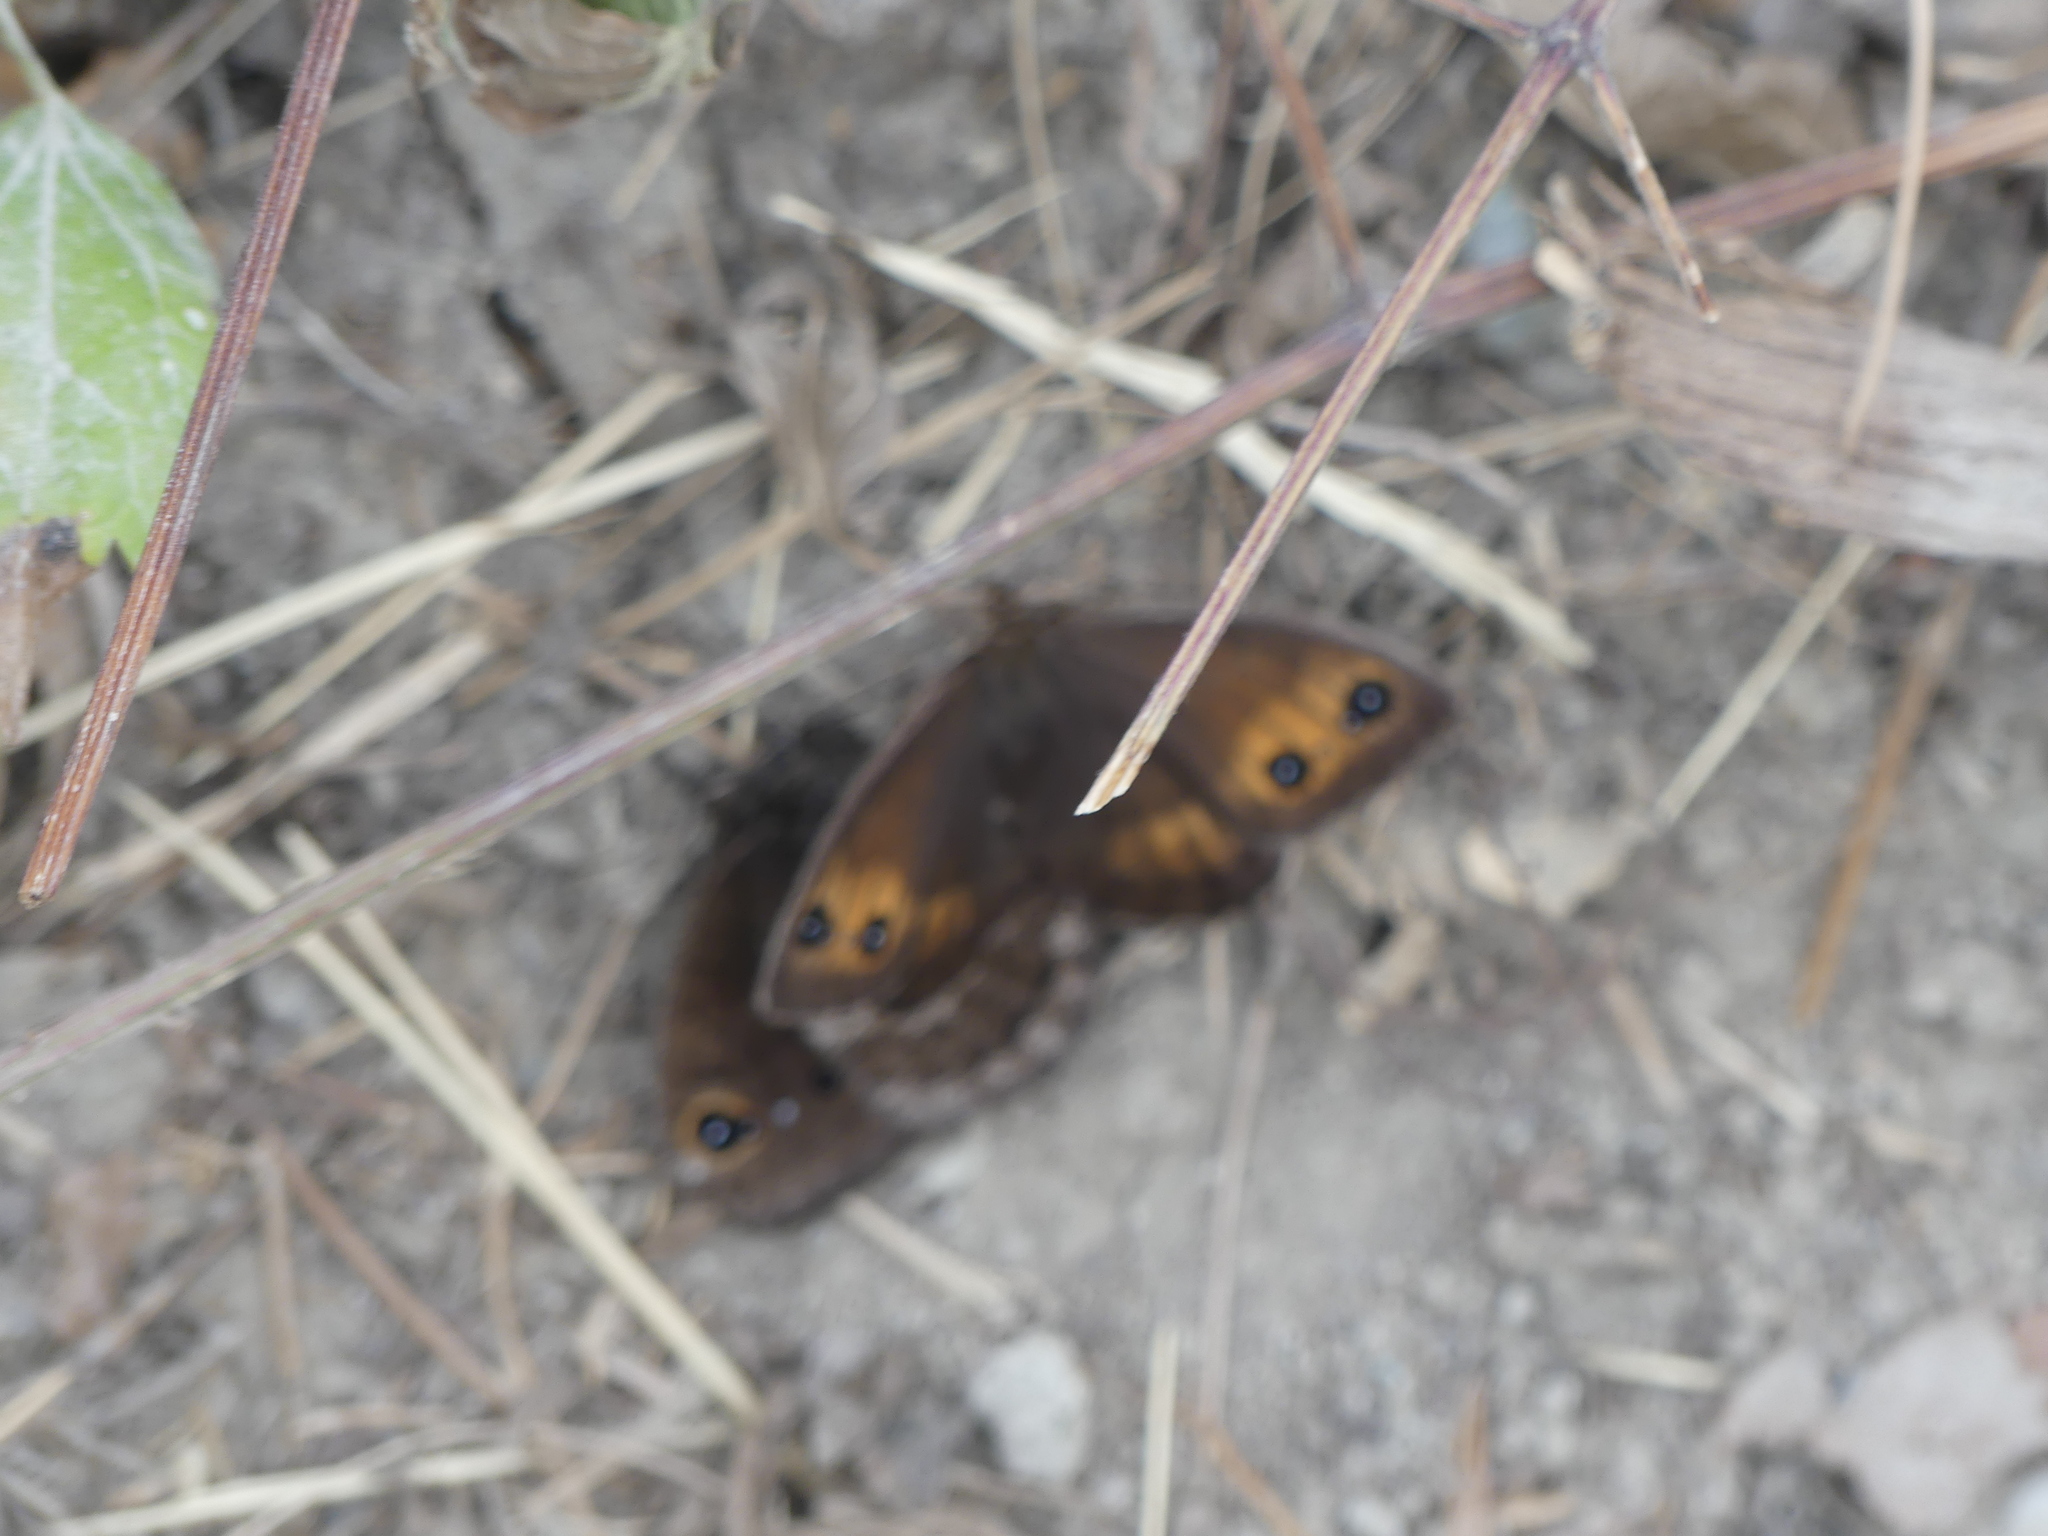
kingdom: Animalia
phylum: Arthropoda
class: Insecta
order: Lepidoptera
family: Nymphalidae
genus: Satyrus
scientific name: Satyrus ferula
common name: Great sooty satyr
